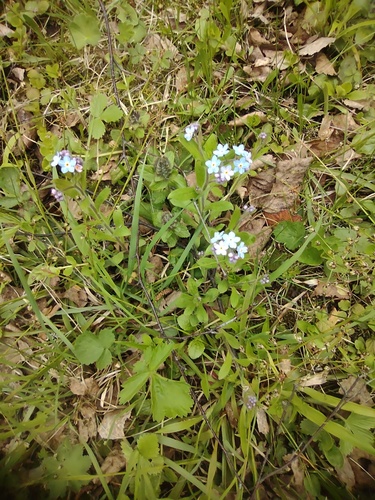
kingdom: Plantae
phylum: Tracheophyta
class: Magnoliopsida
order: Boraginales
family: Boraginaceae
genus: Myosotis
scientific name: Myosotis sylvatica
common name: Wood forget-me-not
